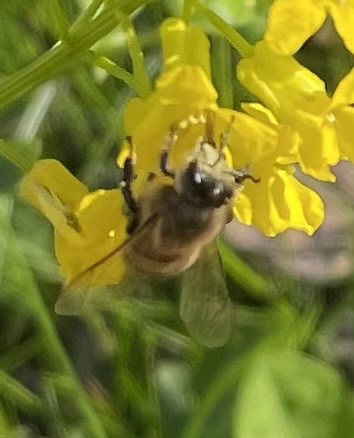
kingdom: Animalia
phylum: Arthropoda
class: Insecta
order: Hymenoptera
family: Apidae
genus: Apis
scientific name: Apis mellifera
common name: Honey bee
